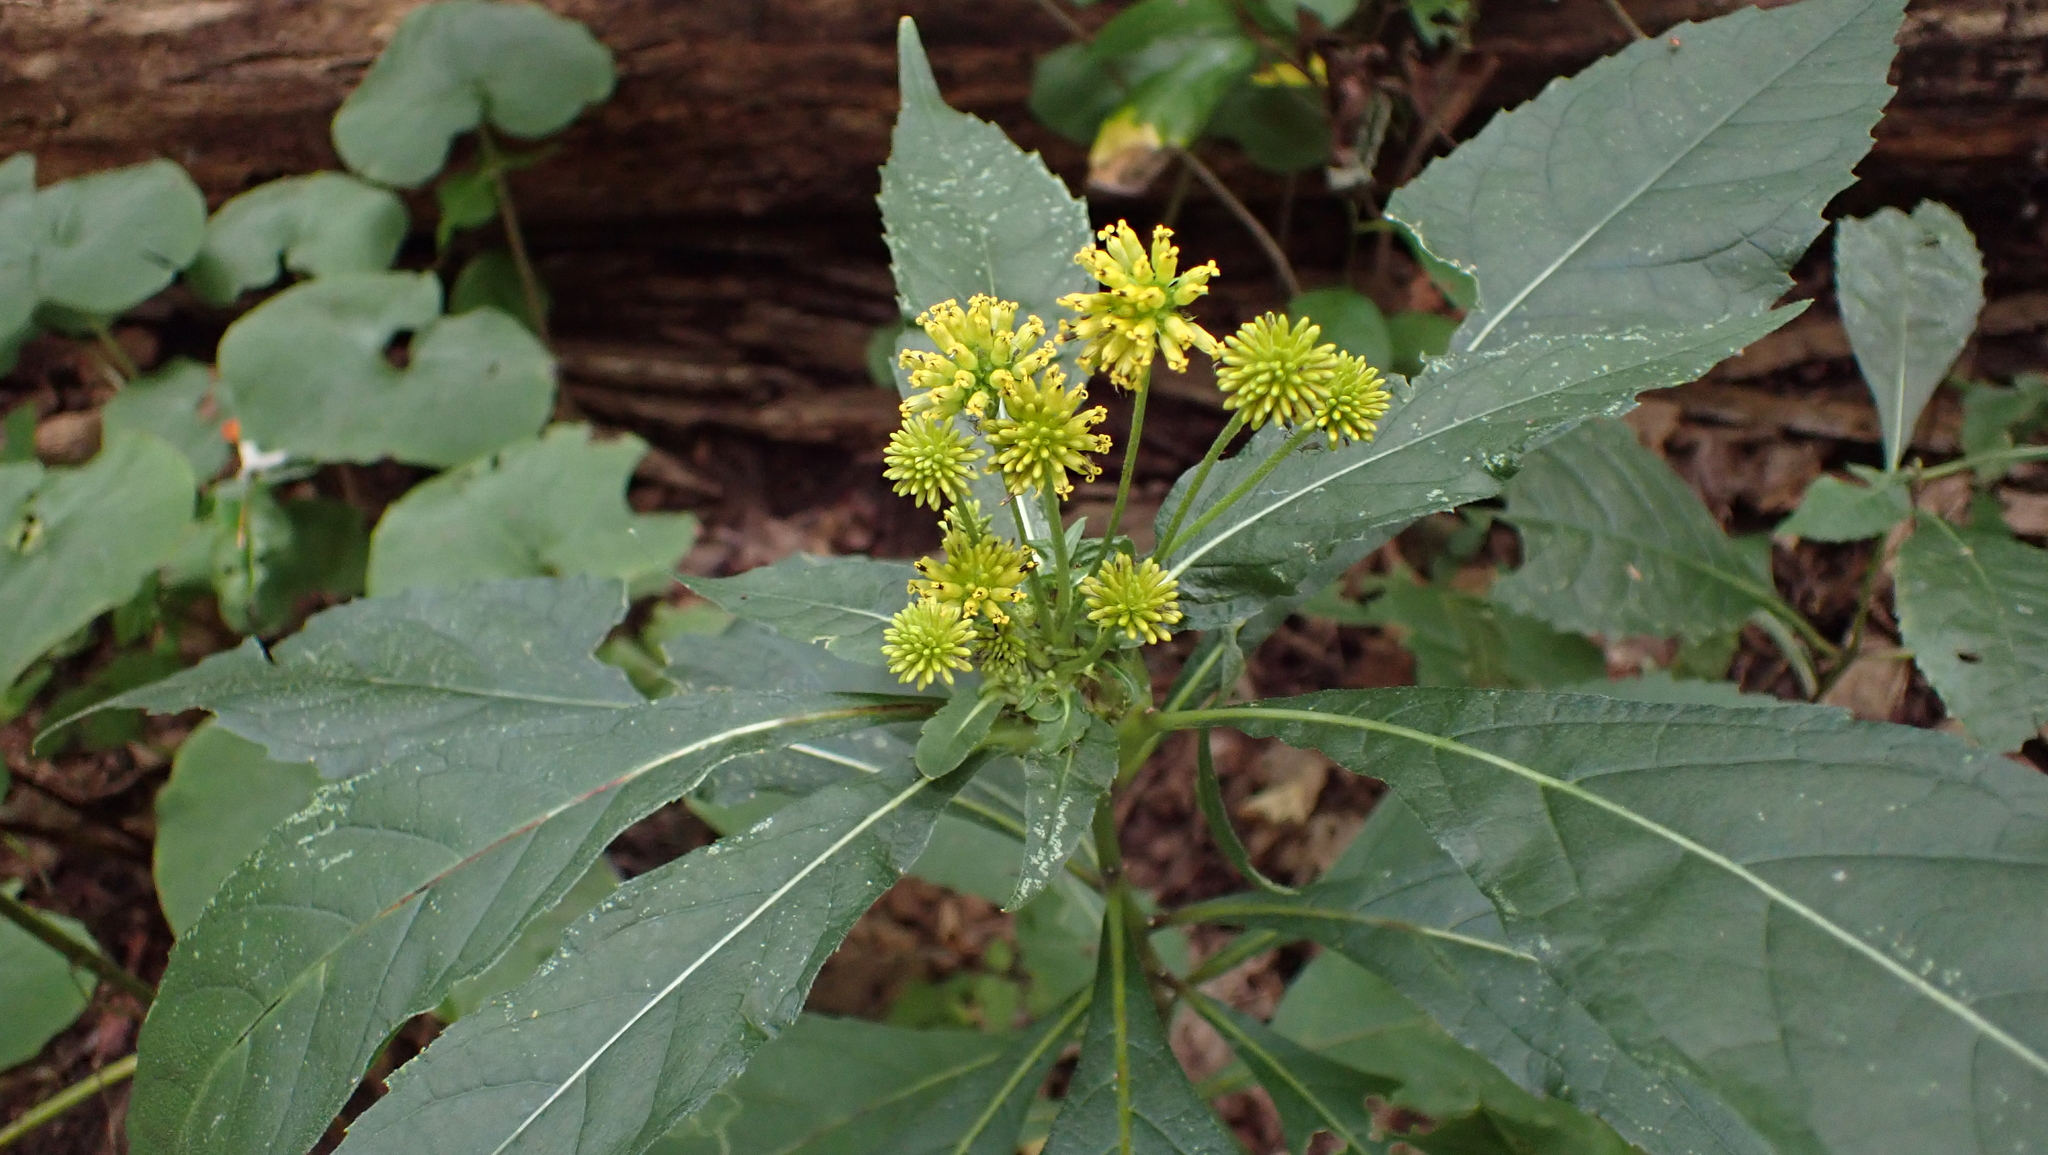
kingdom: Plantae
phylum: Tracheophyta
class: Magnoliopsida
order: Asterales
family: Asteraceae
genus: Verbesina
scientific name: Verbesina alternifolia
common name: Wingstem
